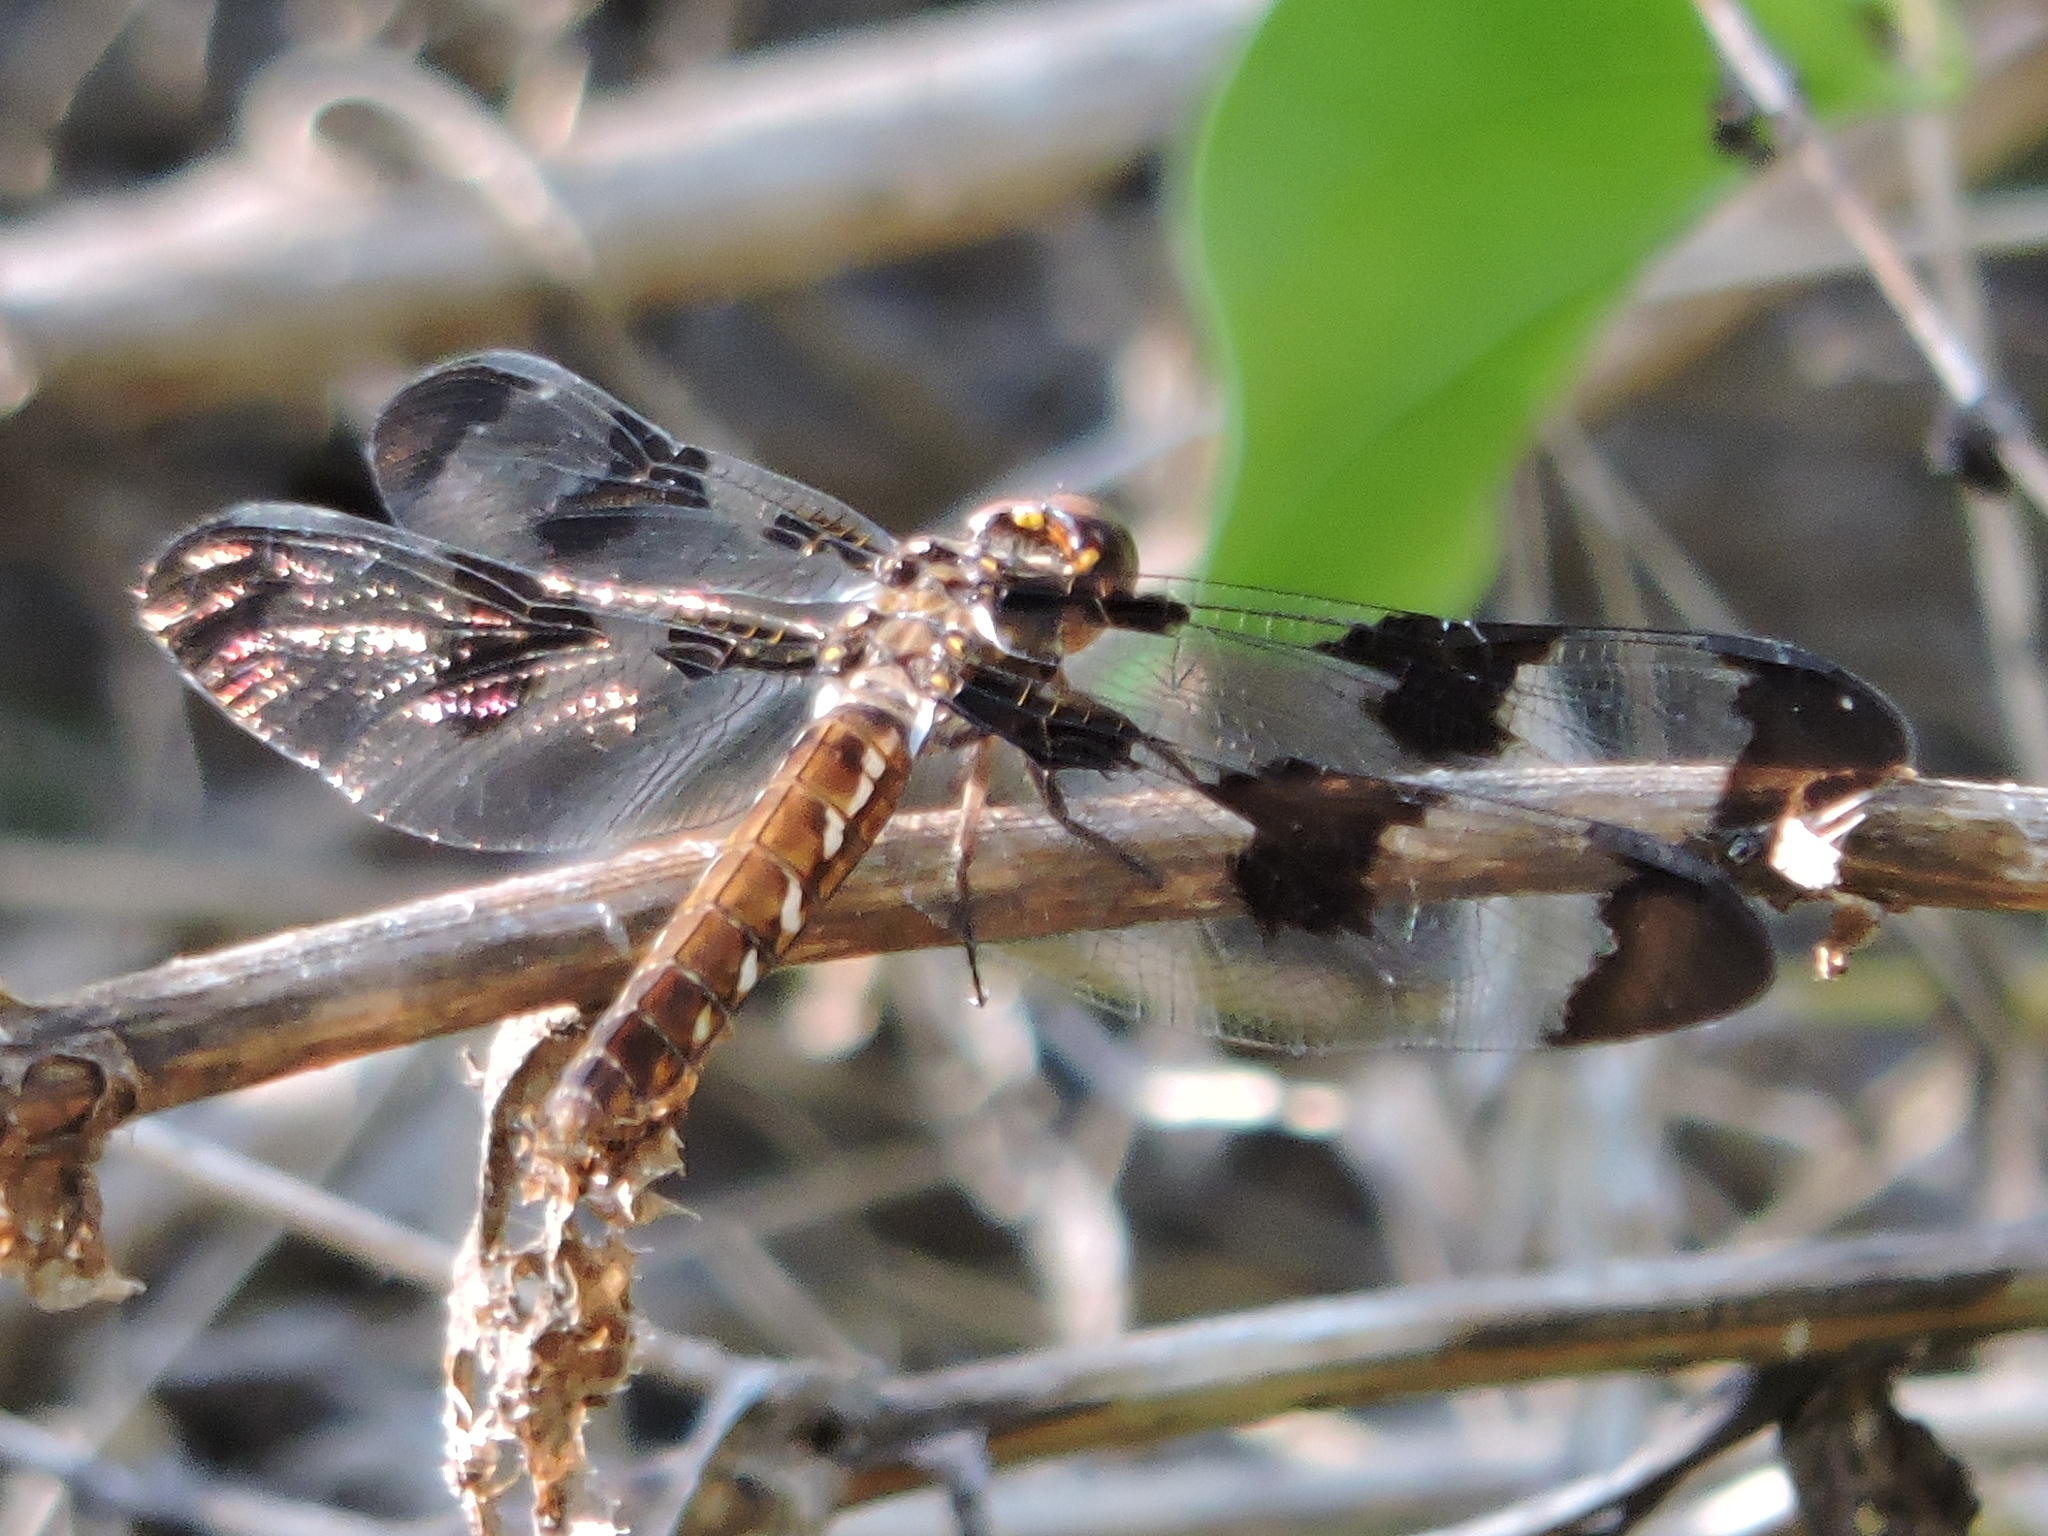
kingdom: Animalia
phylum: Arthropoda
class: Insecta
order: Odonata
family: Libellulidae
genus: Plathemis
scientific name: Plathemis lydia
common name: Common whitetail
